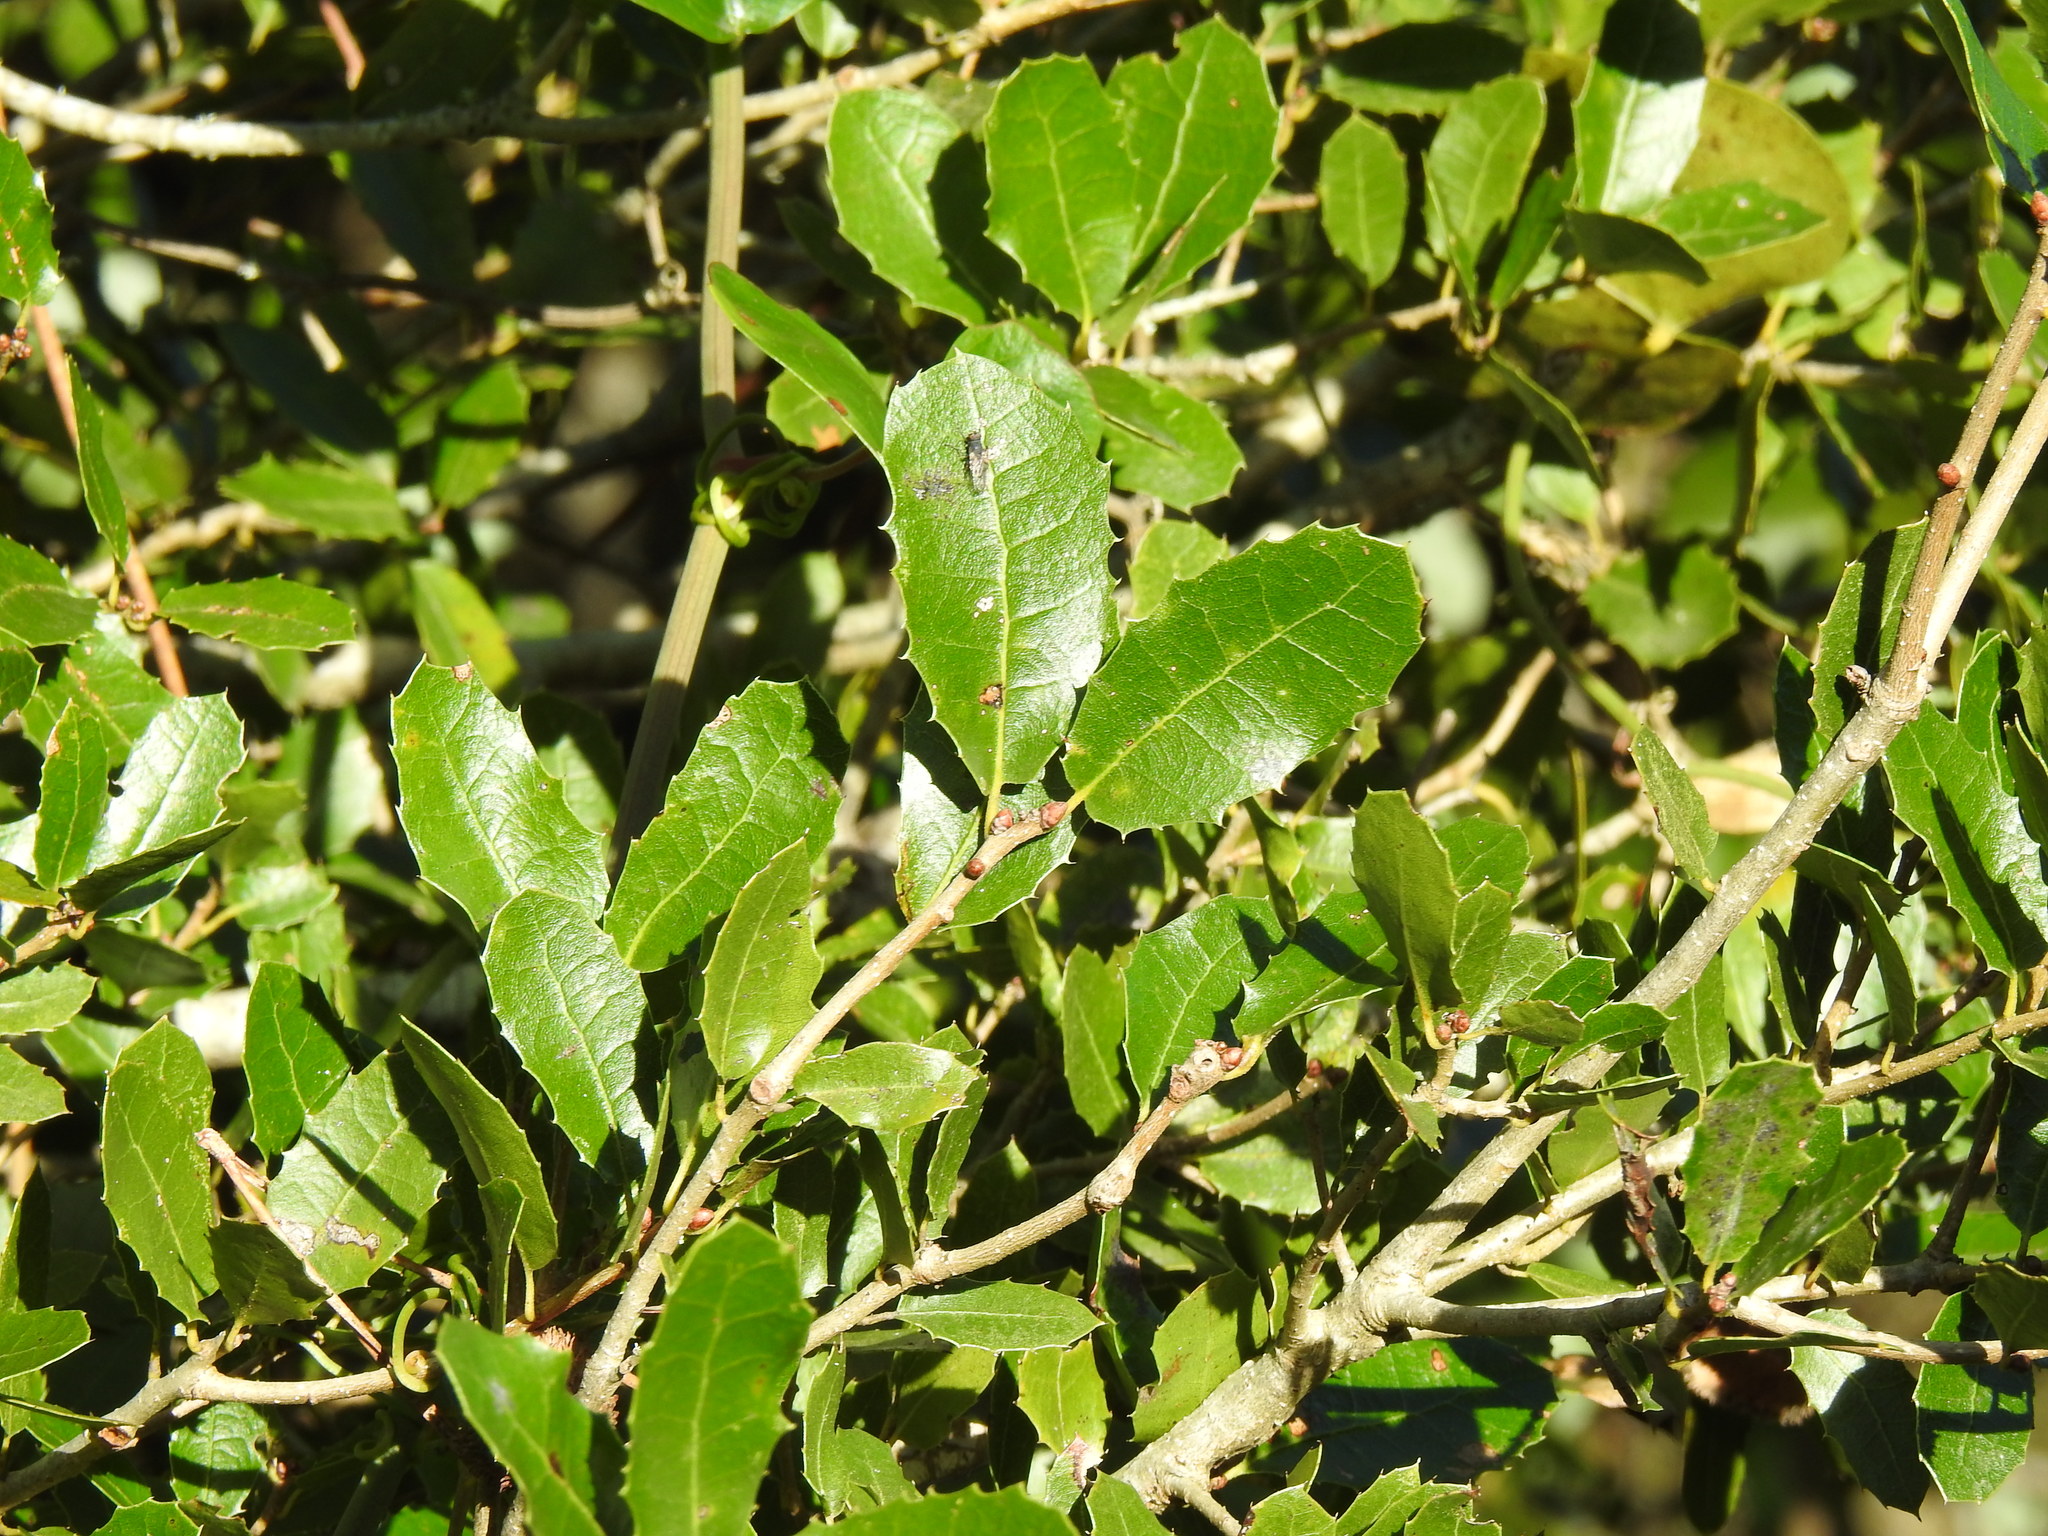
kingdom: Plantae
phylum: Tracheophyta
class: Magnoliopsida
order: Fagales
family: Fagaceae
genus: Quercus
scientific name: Quercus coccifera
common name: Kermes oak
